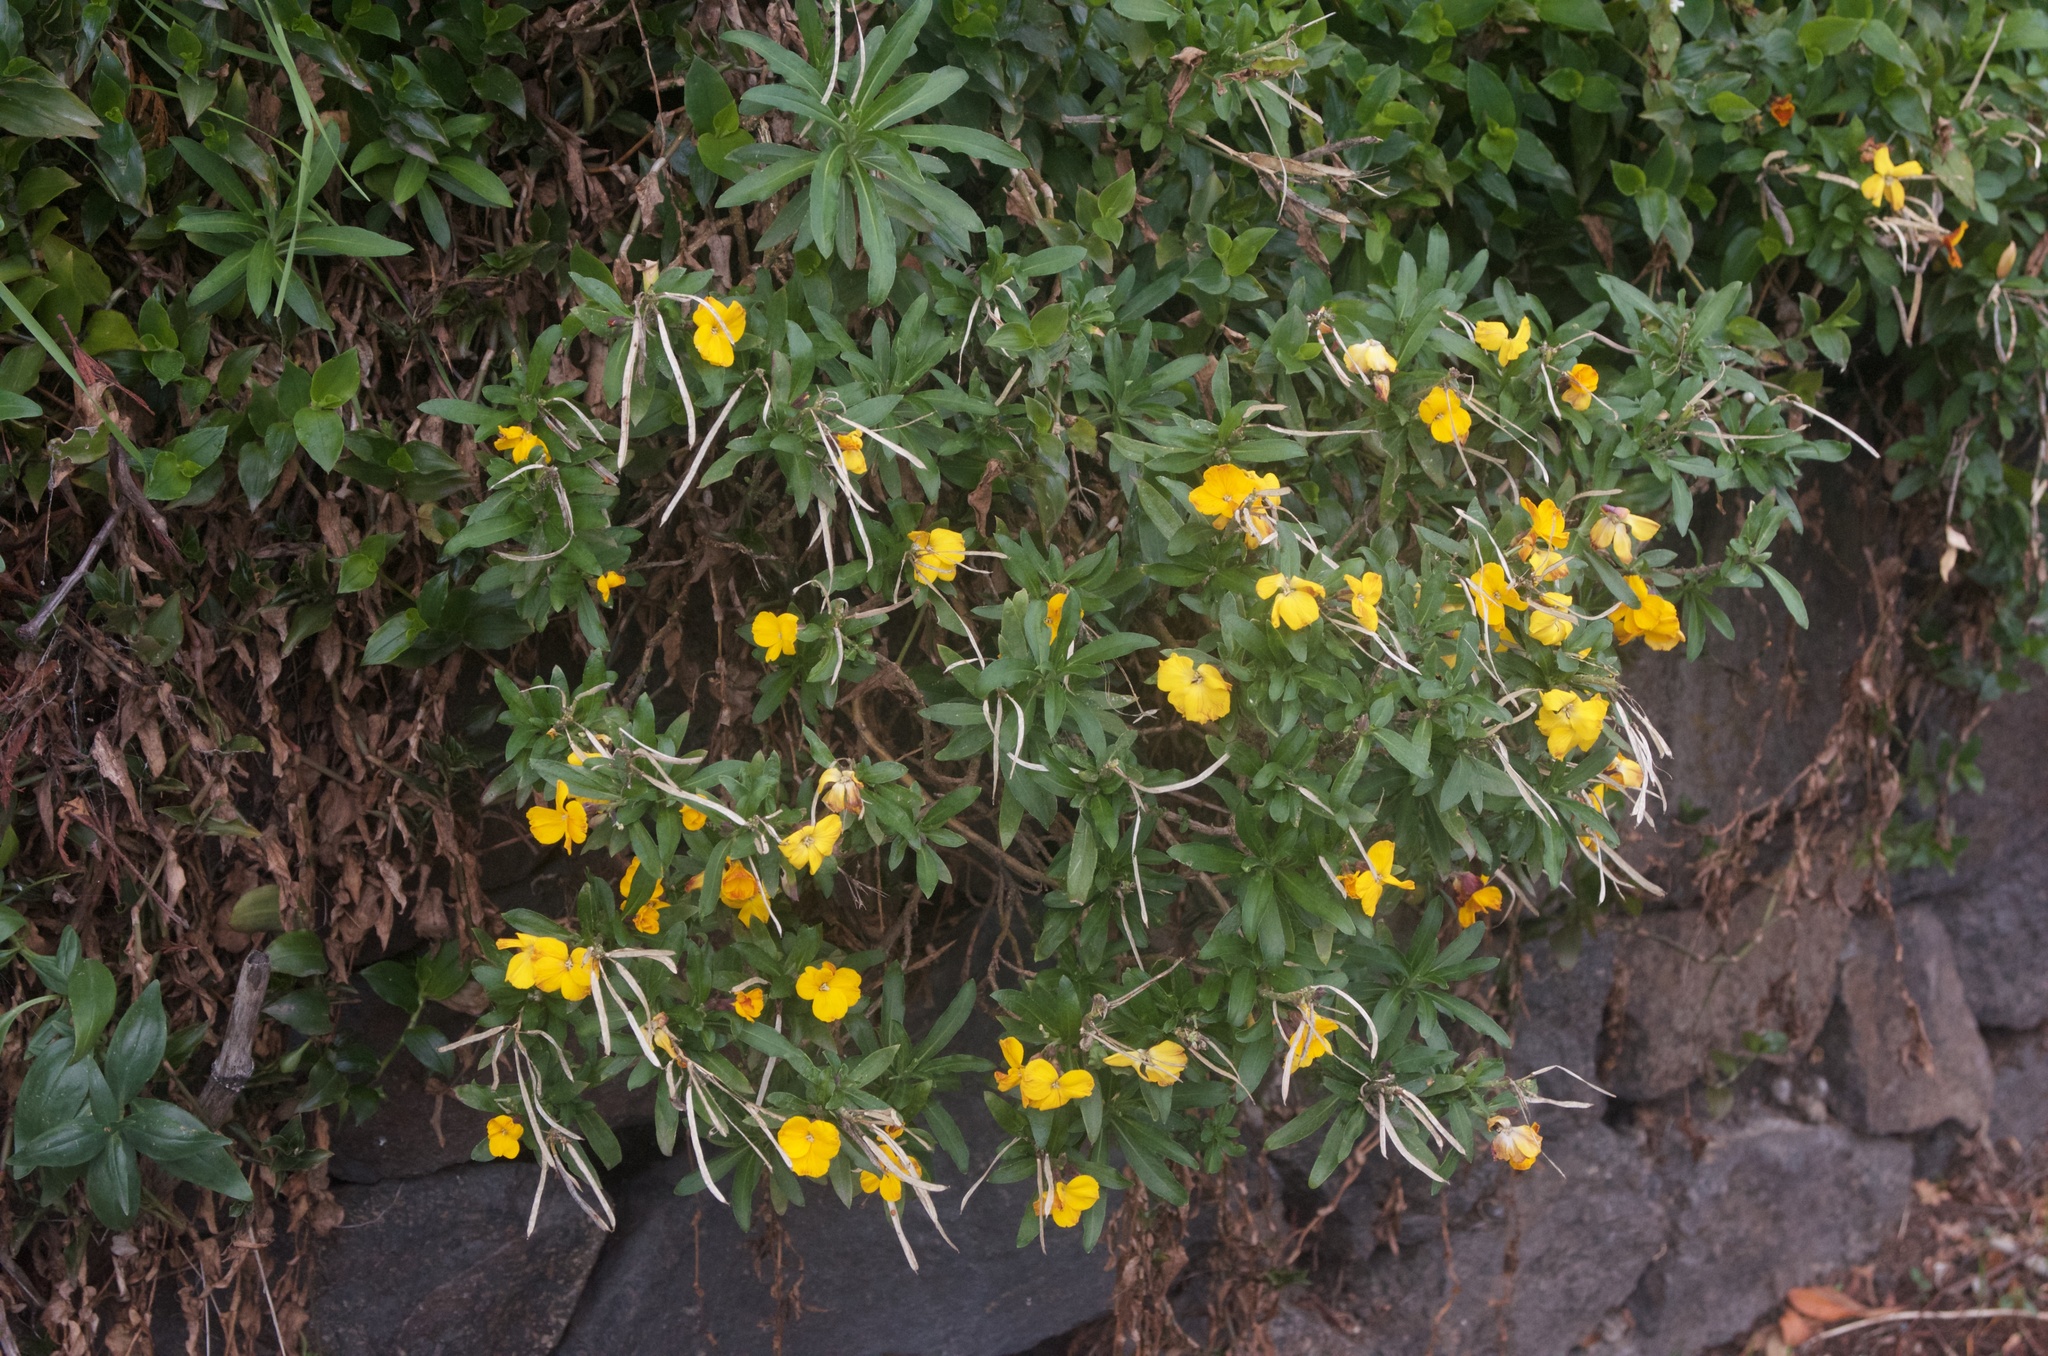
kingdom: Plantae
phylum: Tracheophyta
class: Magnoliopsida
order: Brassicales
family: Brassicaceae
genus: Erysimum
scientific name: Erysimum cheiri
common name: Wallflower
